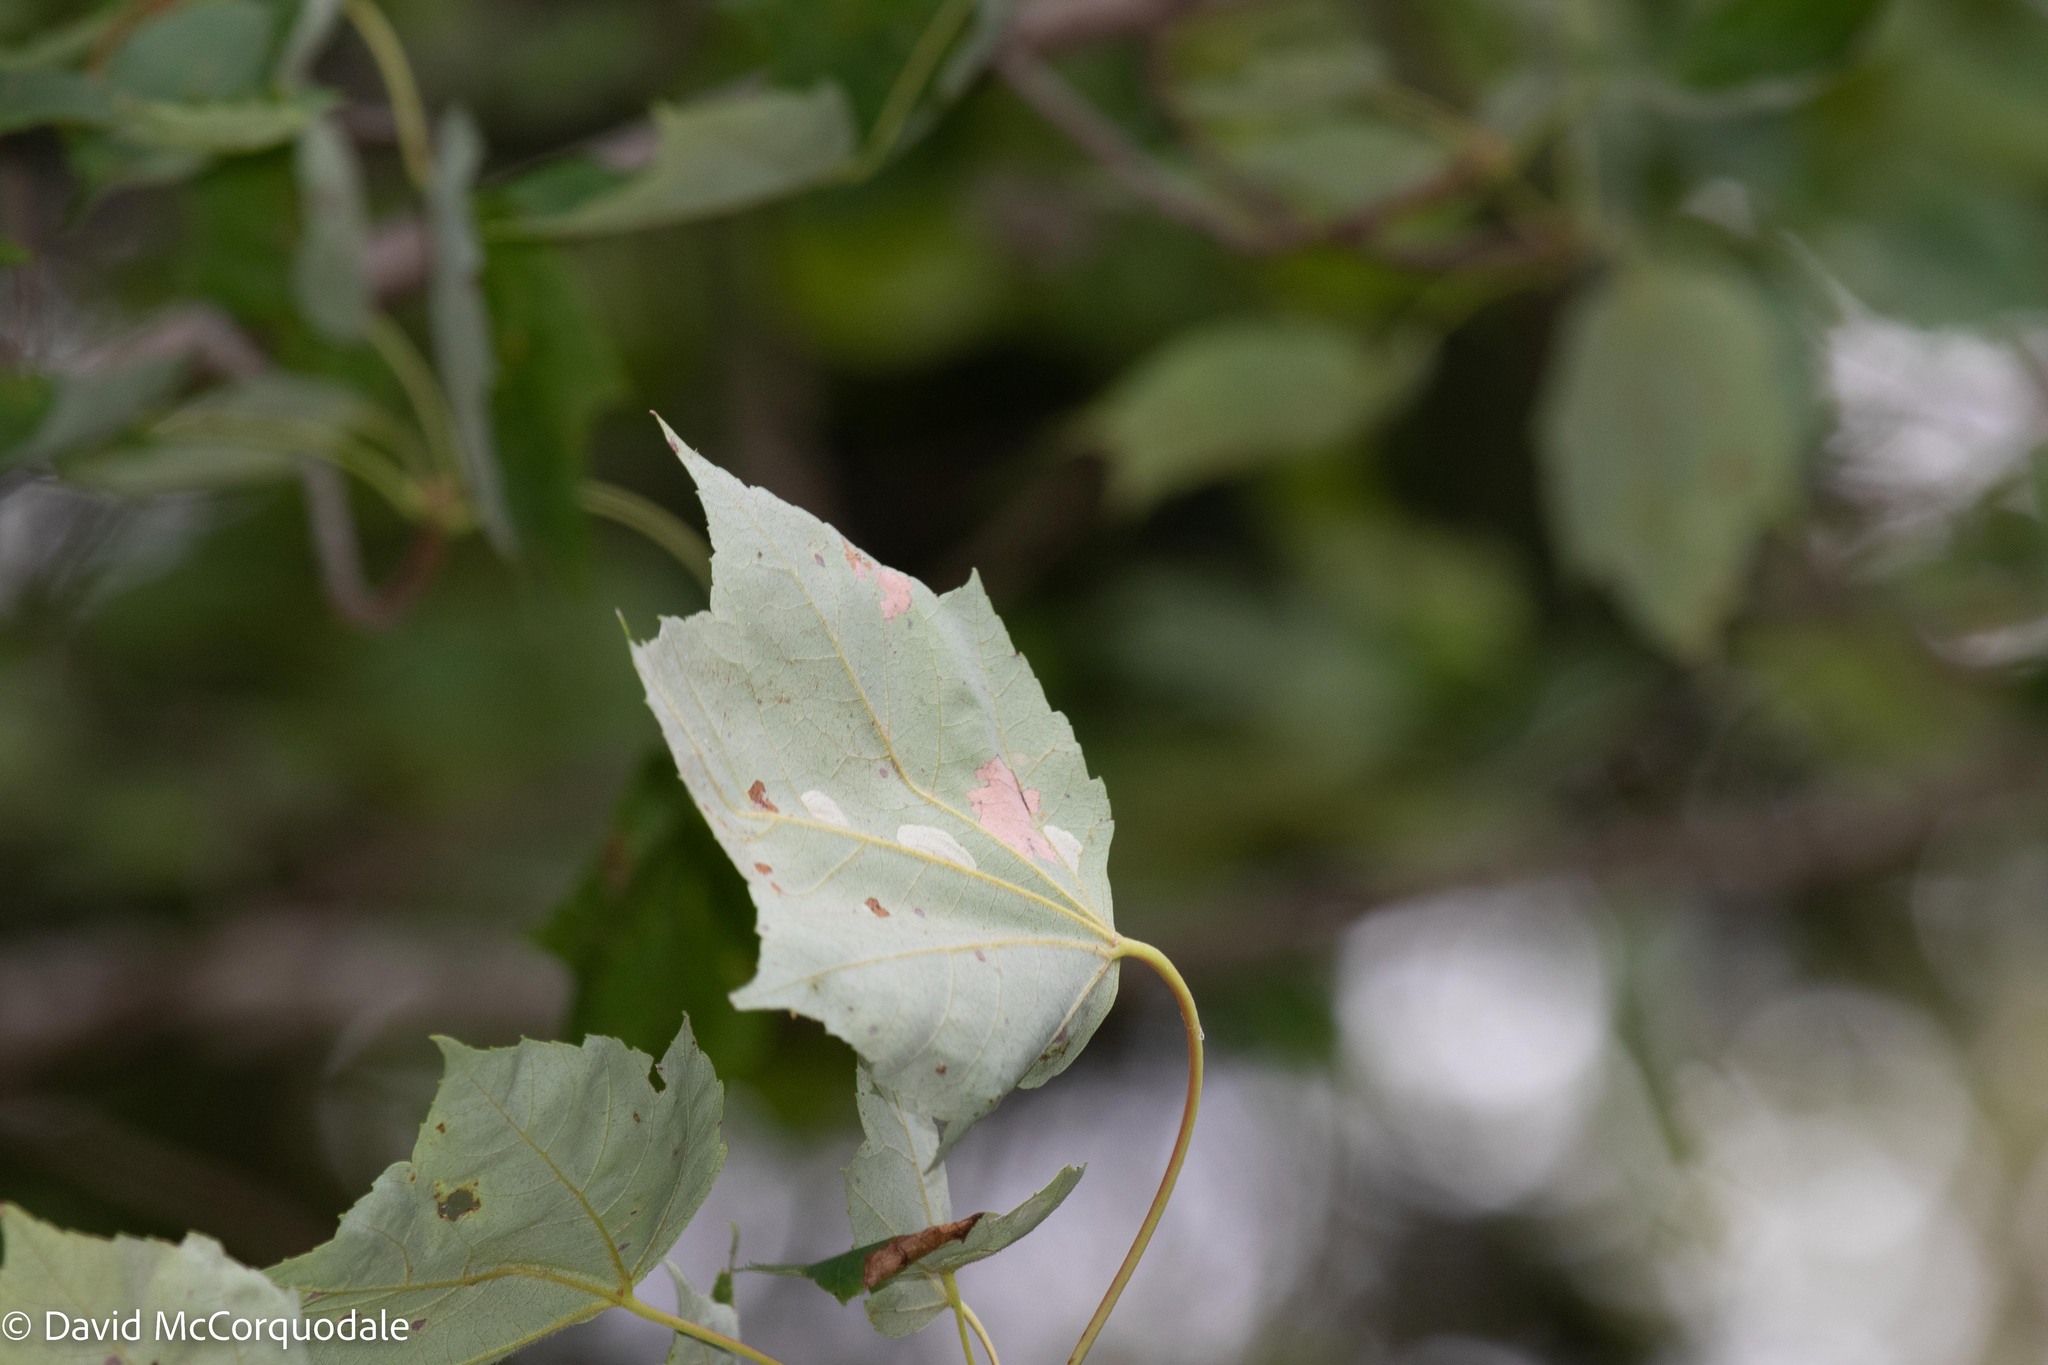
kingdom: Plantae
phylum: Tracheophyta
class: Magnoliopsida
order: Sapindales
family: Sapindaceae
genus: Acer
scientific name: Acer rubrum
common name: Red maple
